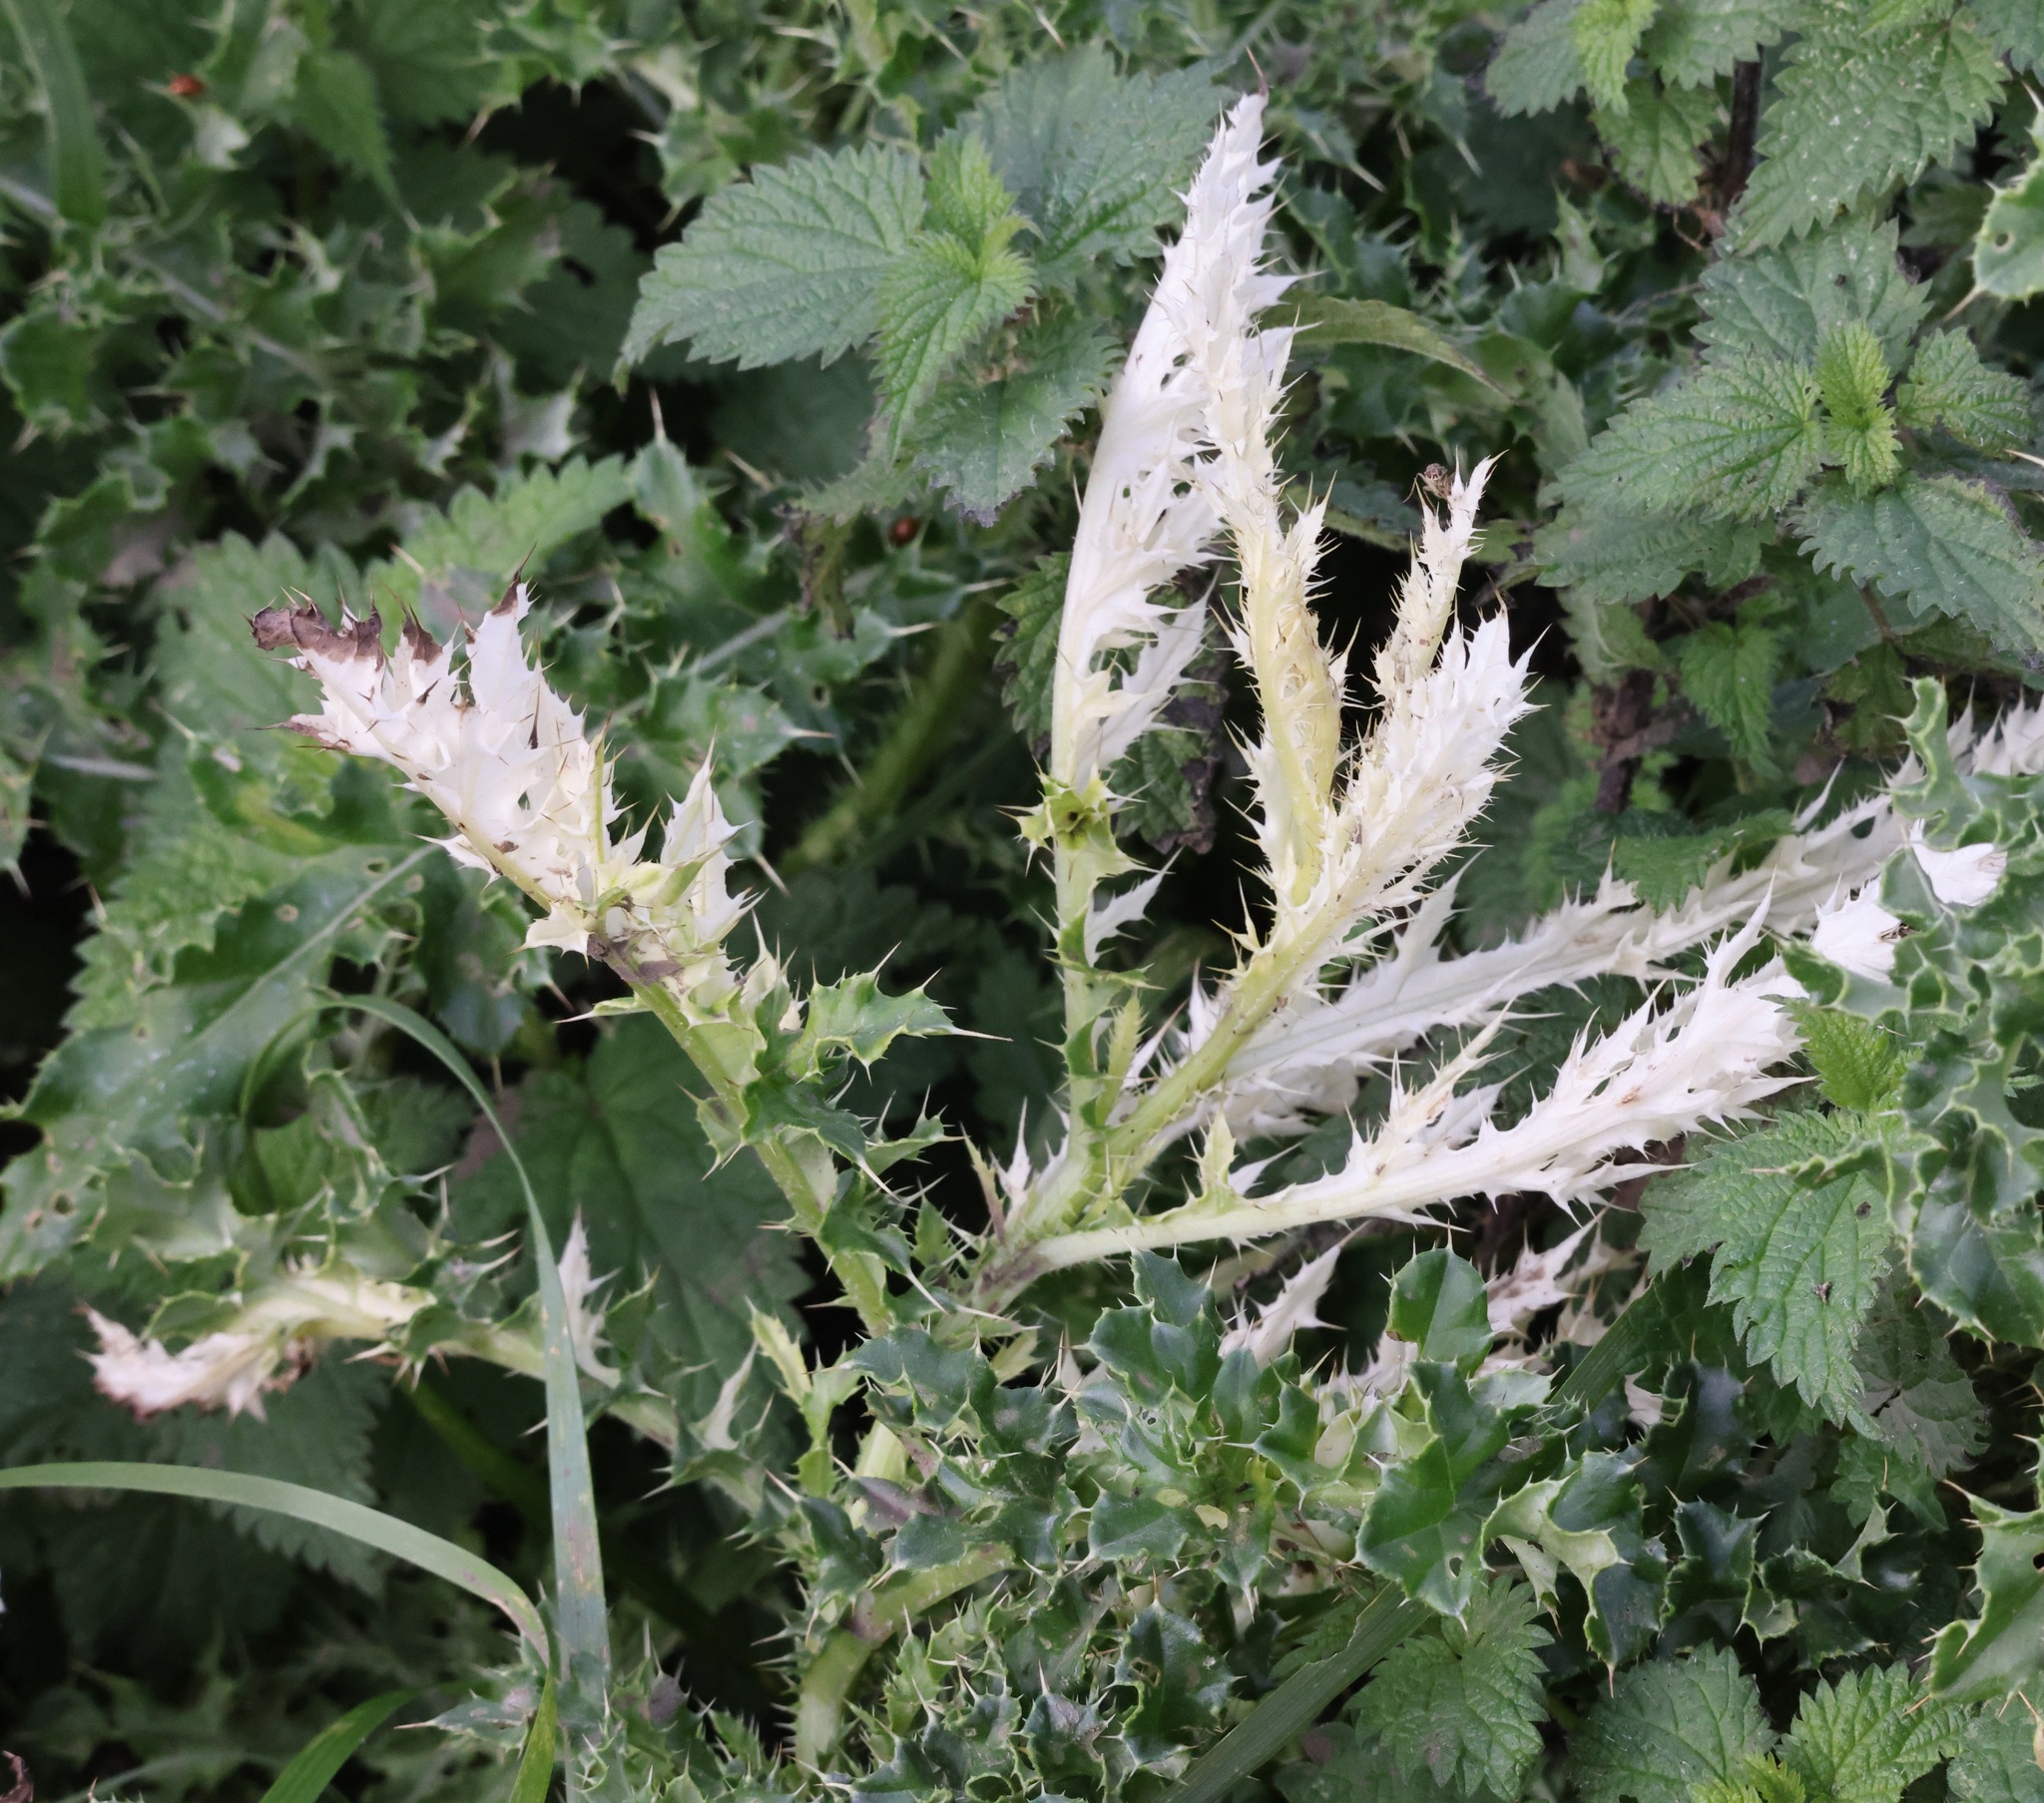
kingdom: Bacteria
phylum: Proteobacteria
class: Gammaproteobacteria
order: Pseudomonadales
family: Pseudomonadaceae
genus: Pseudomonas
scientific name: Pseudomonas syringae
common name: Bacterial speck
